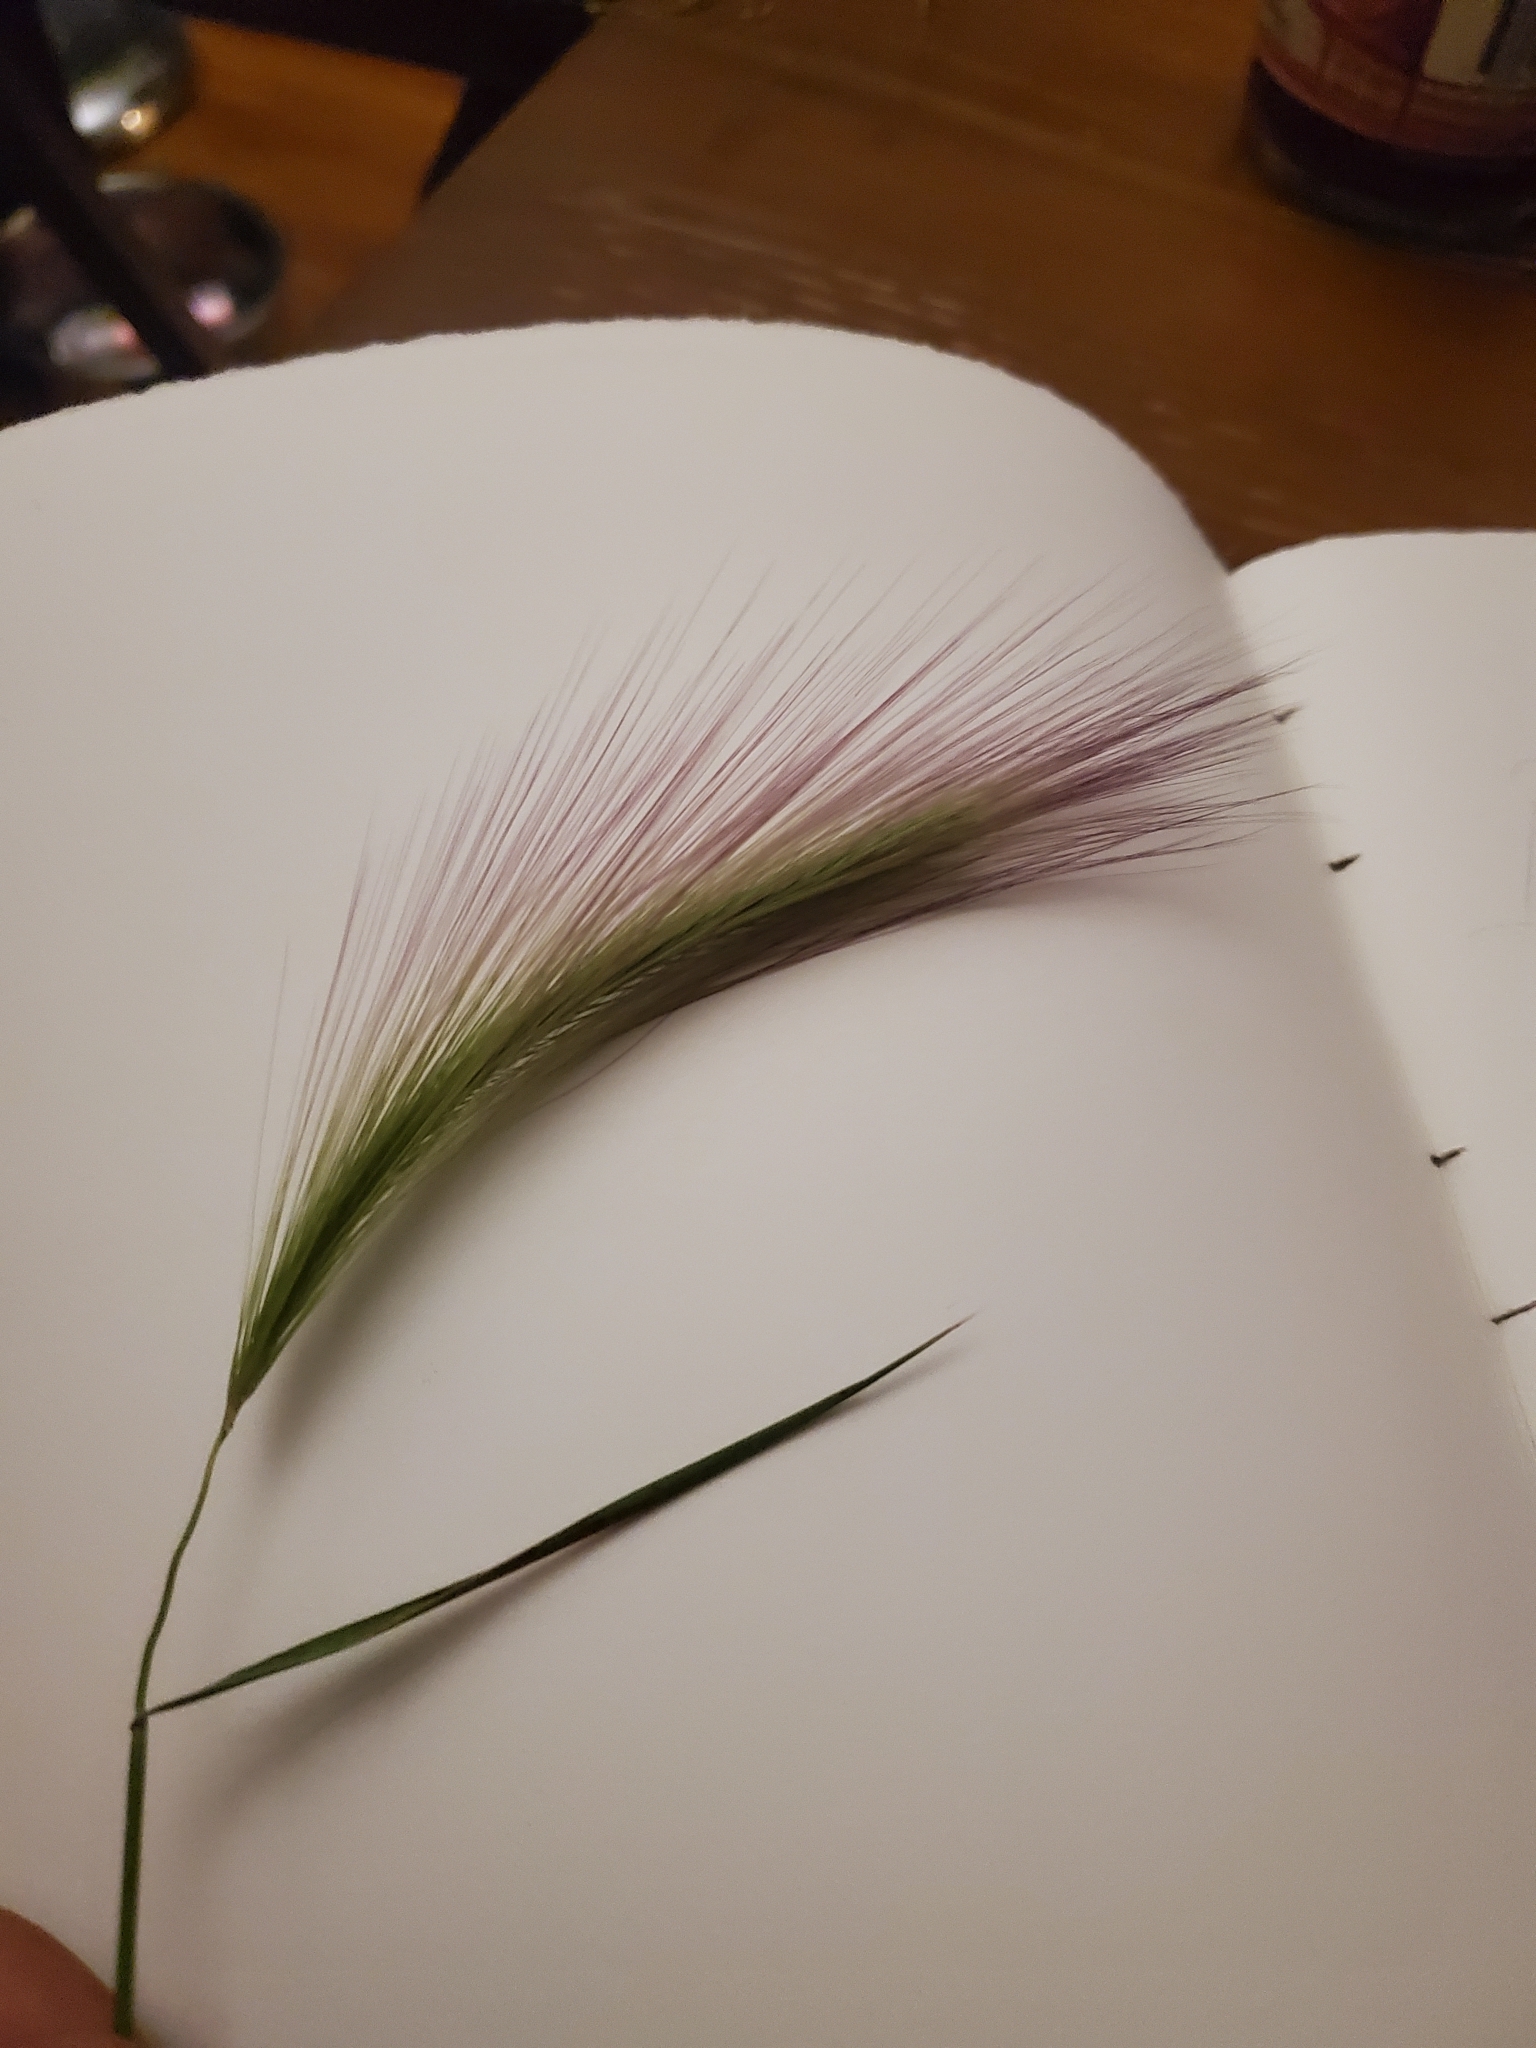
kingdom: Plantae
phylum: Tracheophyta
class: Liliopsida
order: Poales
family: Poaceae
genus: Hordeum
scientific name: Hordeum jubatum
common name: Foxtail barley
